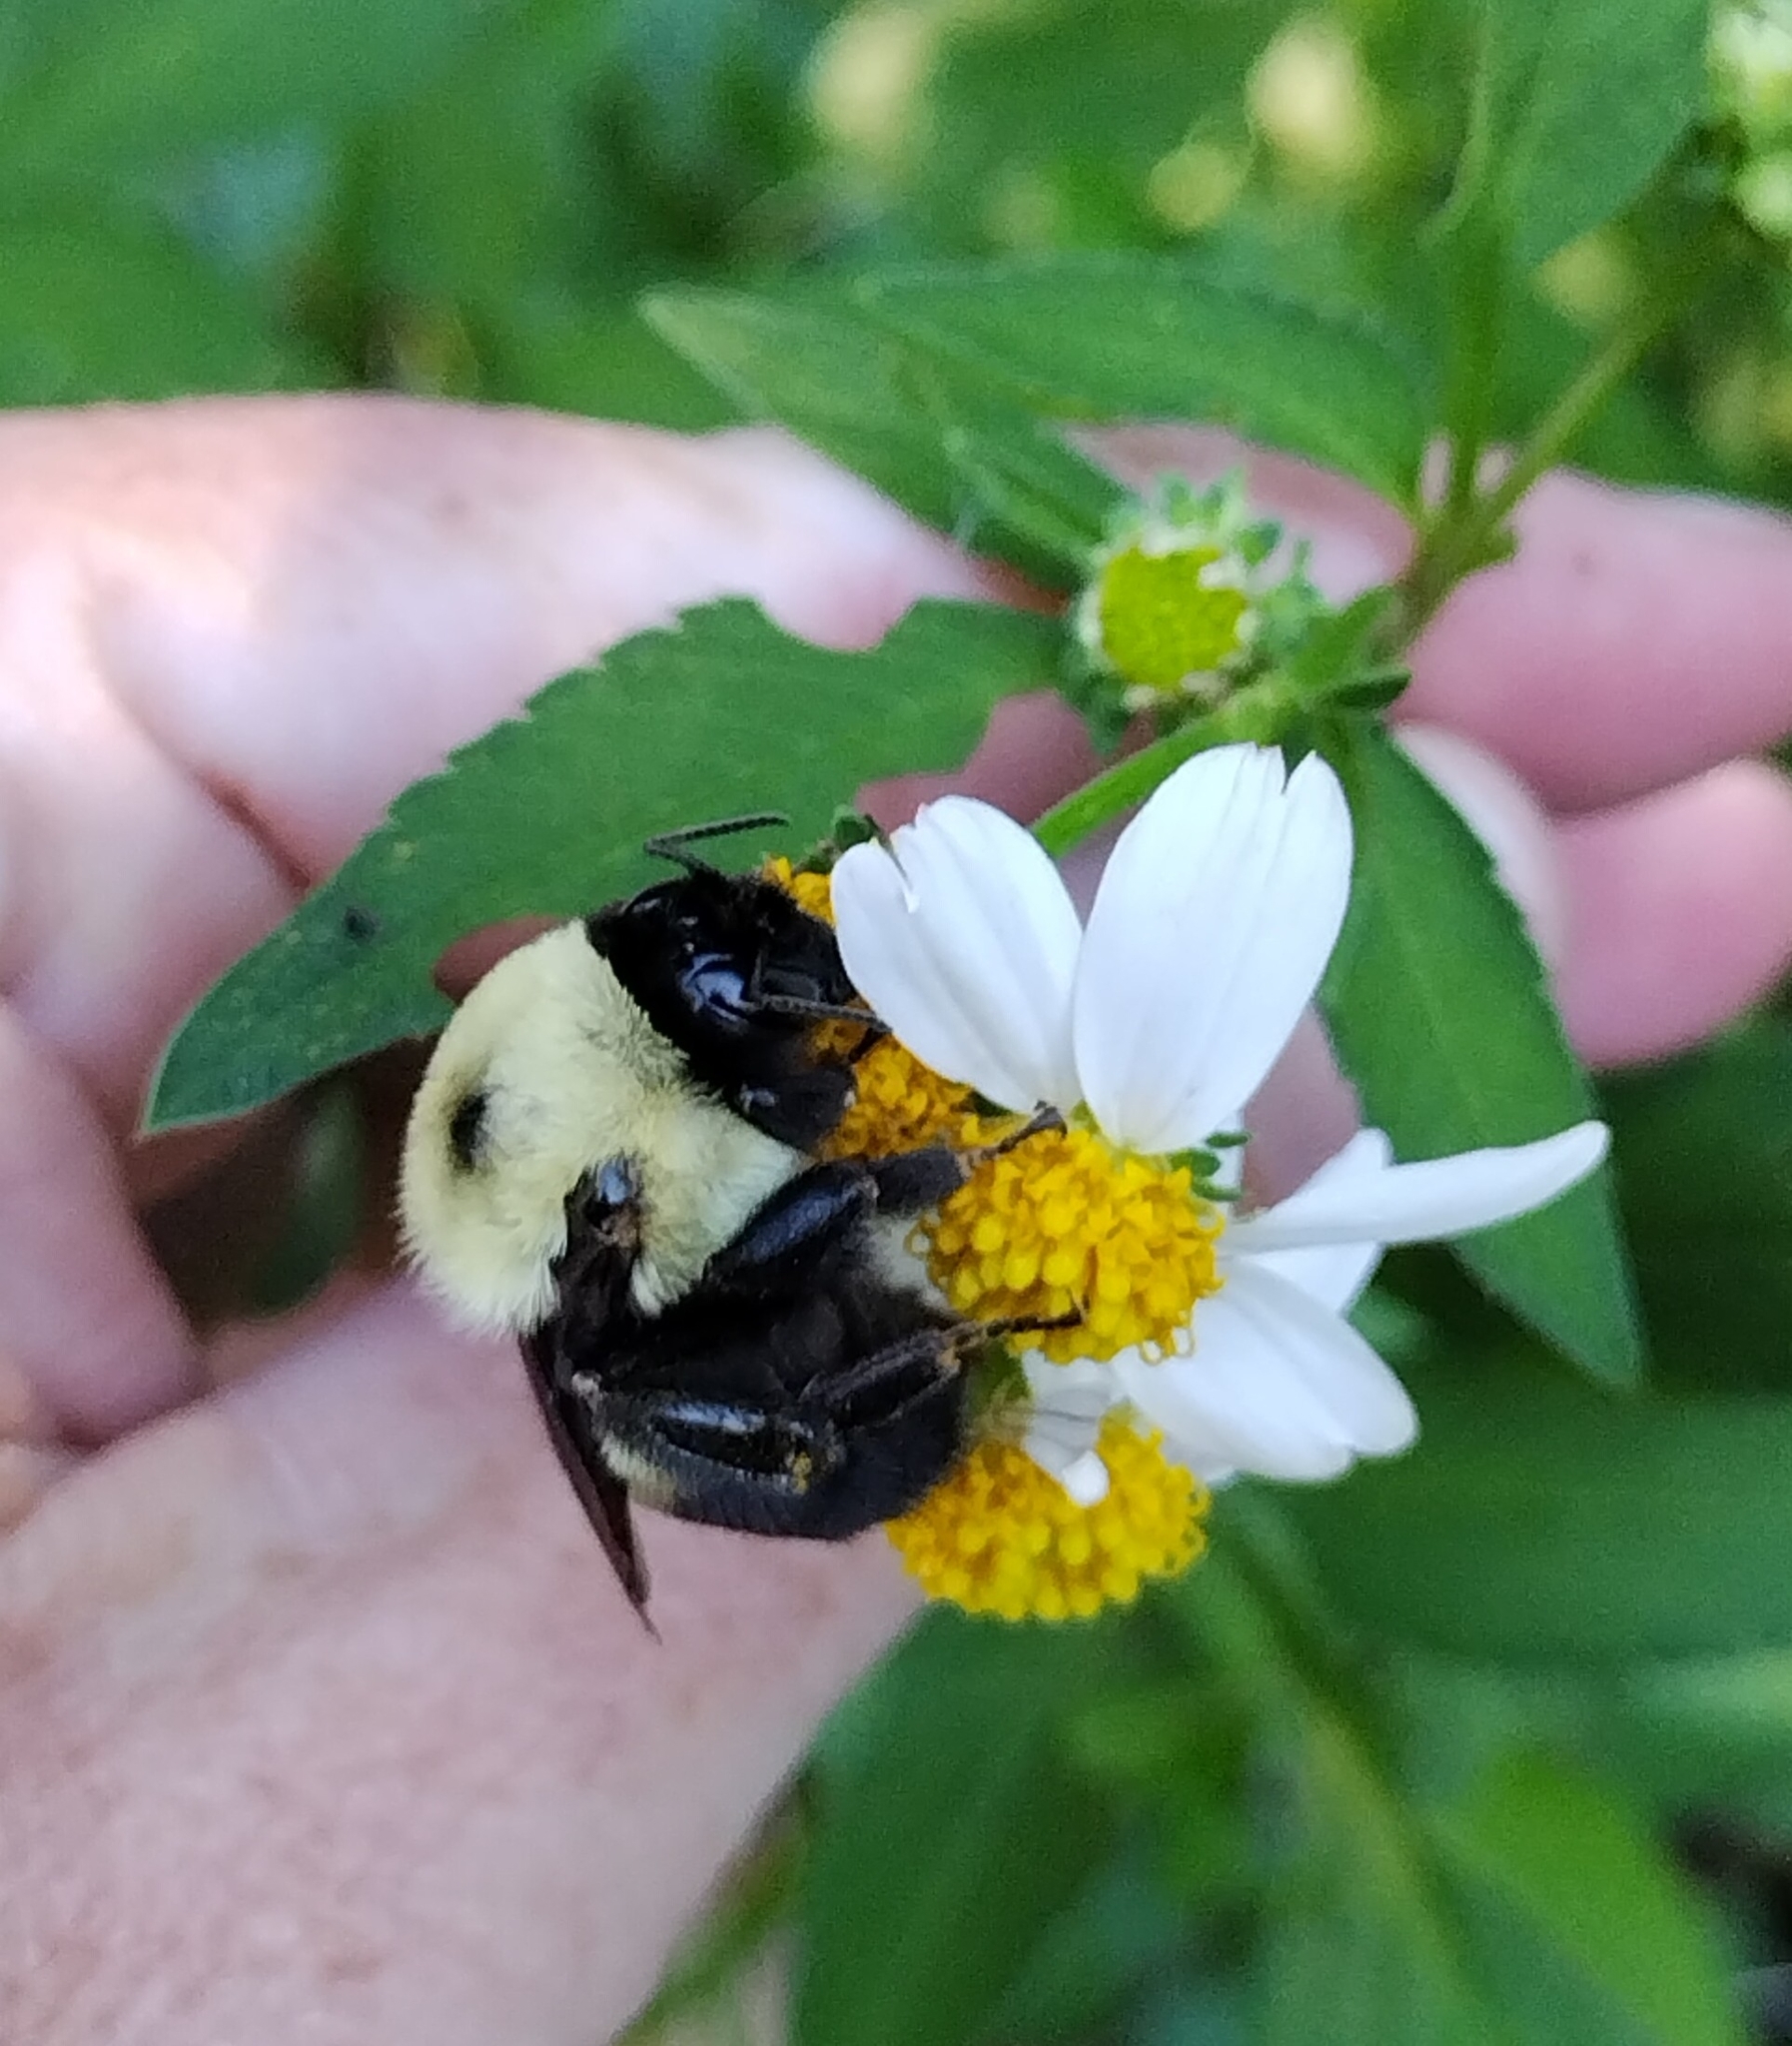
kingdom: Animalia
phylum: Arthropoda
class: Insecta
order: Hymenoptera
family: Apidae
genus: Bombus
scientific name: Bombus griseocollis
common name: Brown-belted bumble bee
